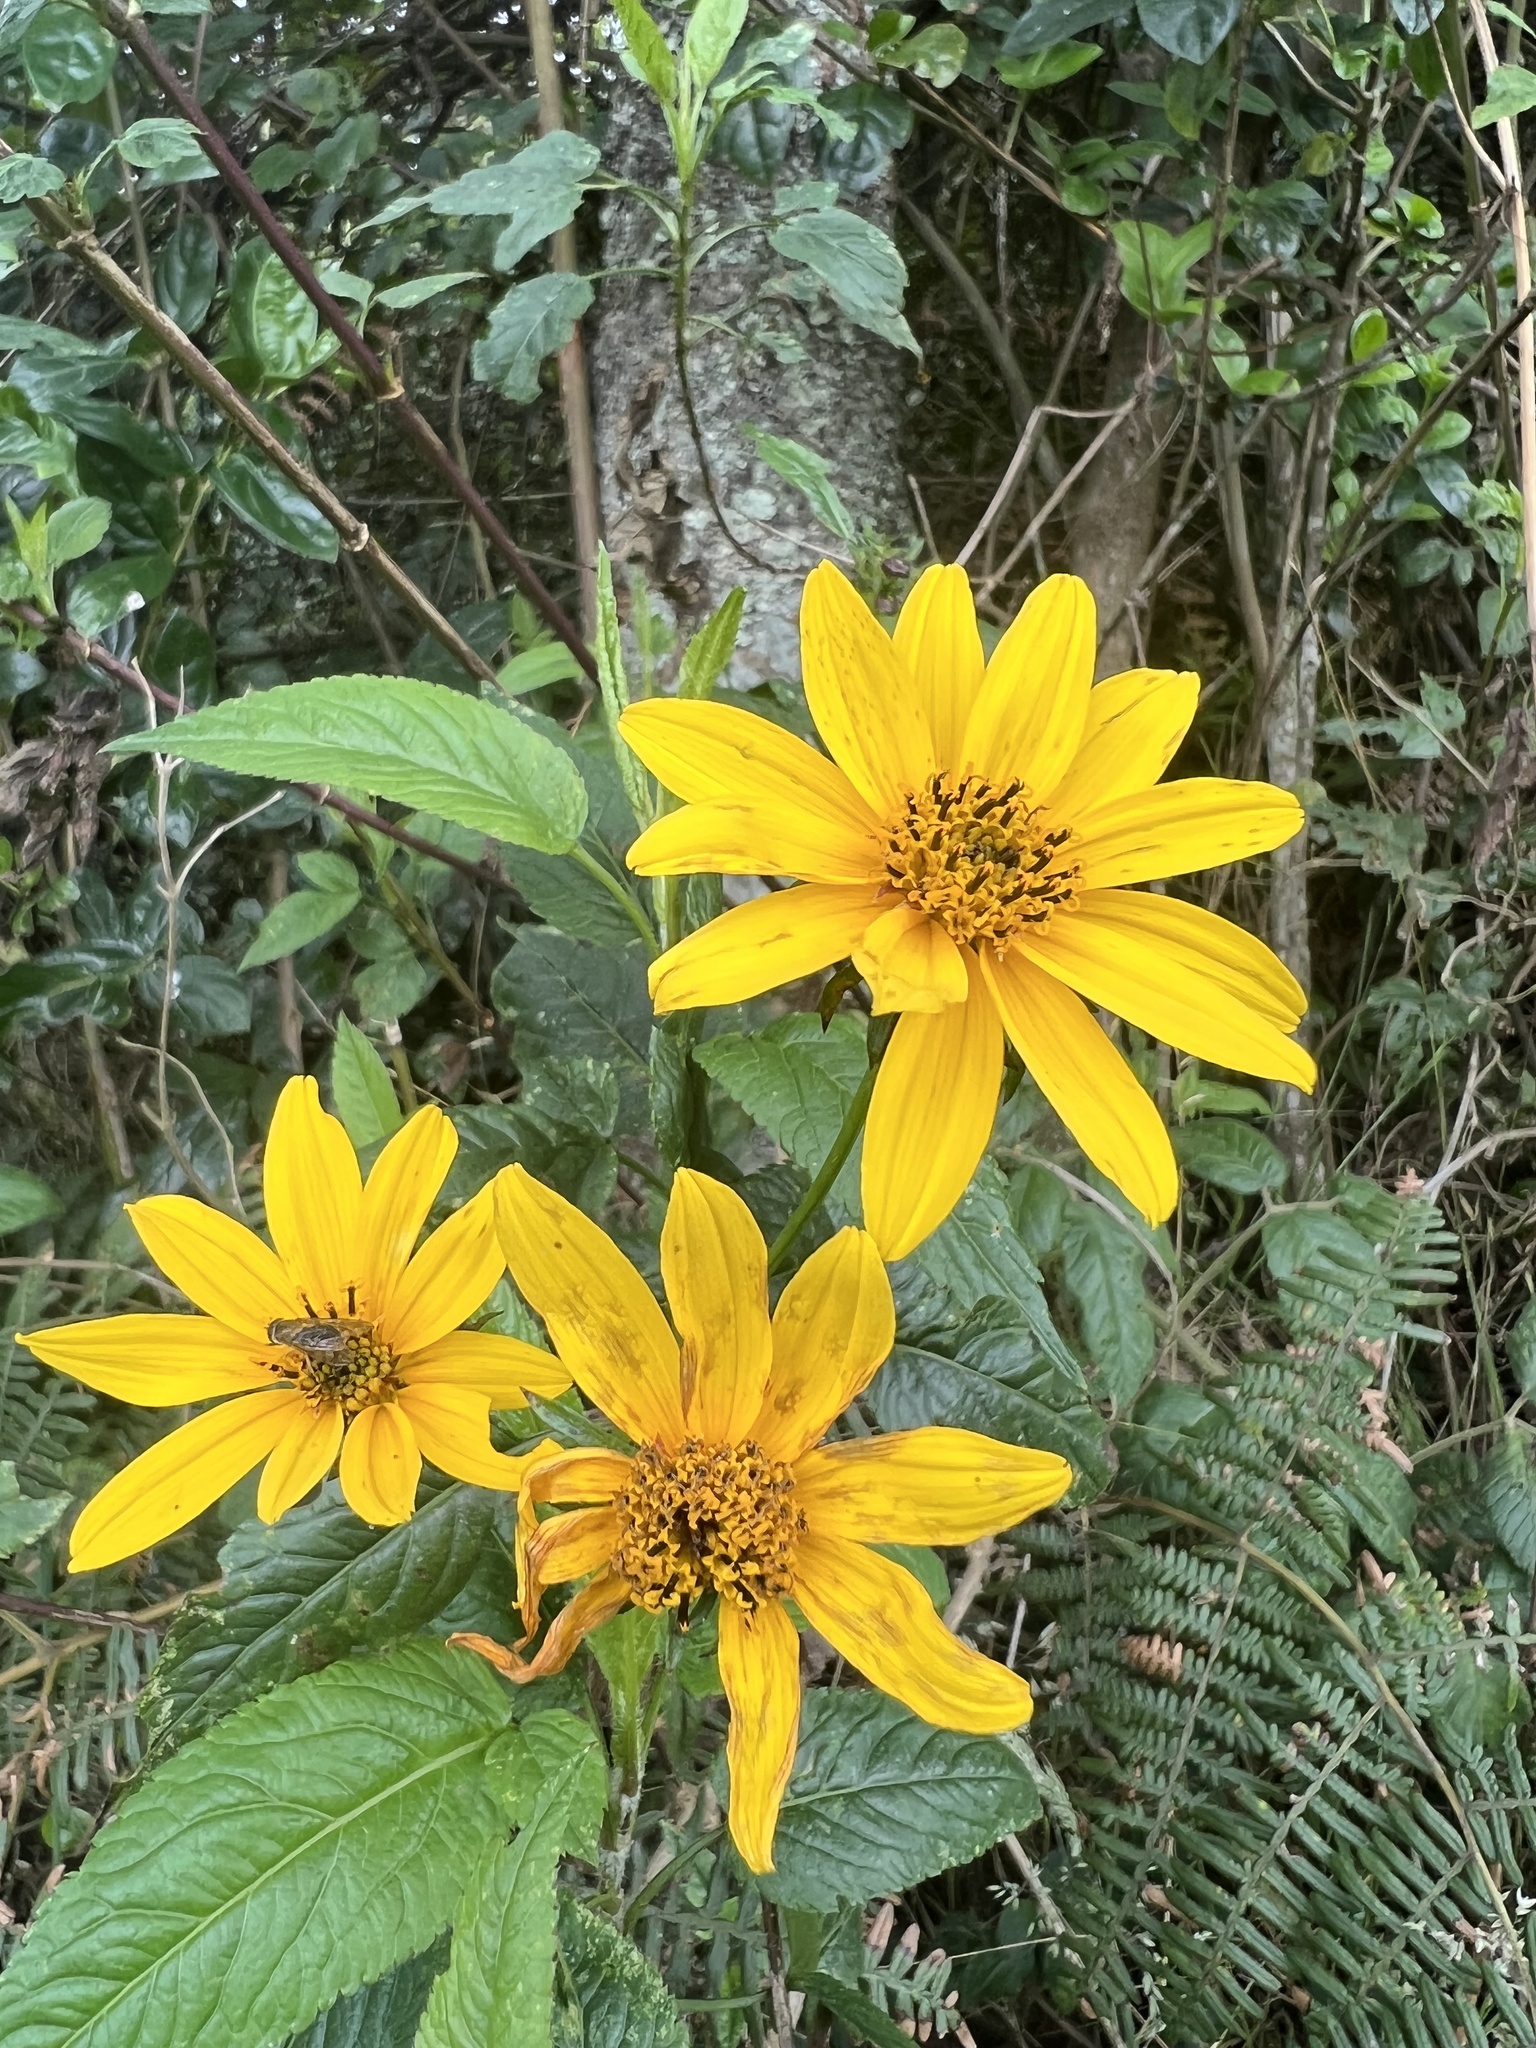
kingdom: Plantae
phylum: Tracheophyta
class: Magnoliopsida
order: Asterales
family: Asteraceae
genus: Bidens
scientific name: Bidens rubifolia
